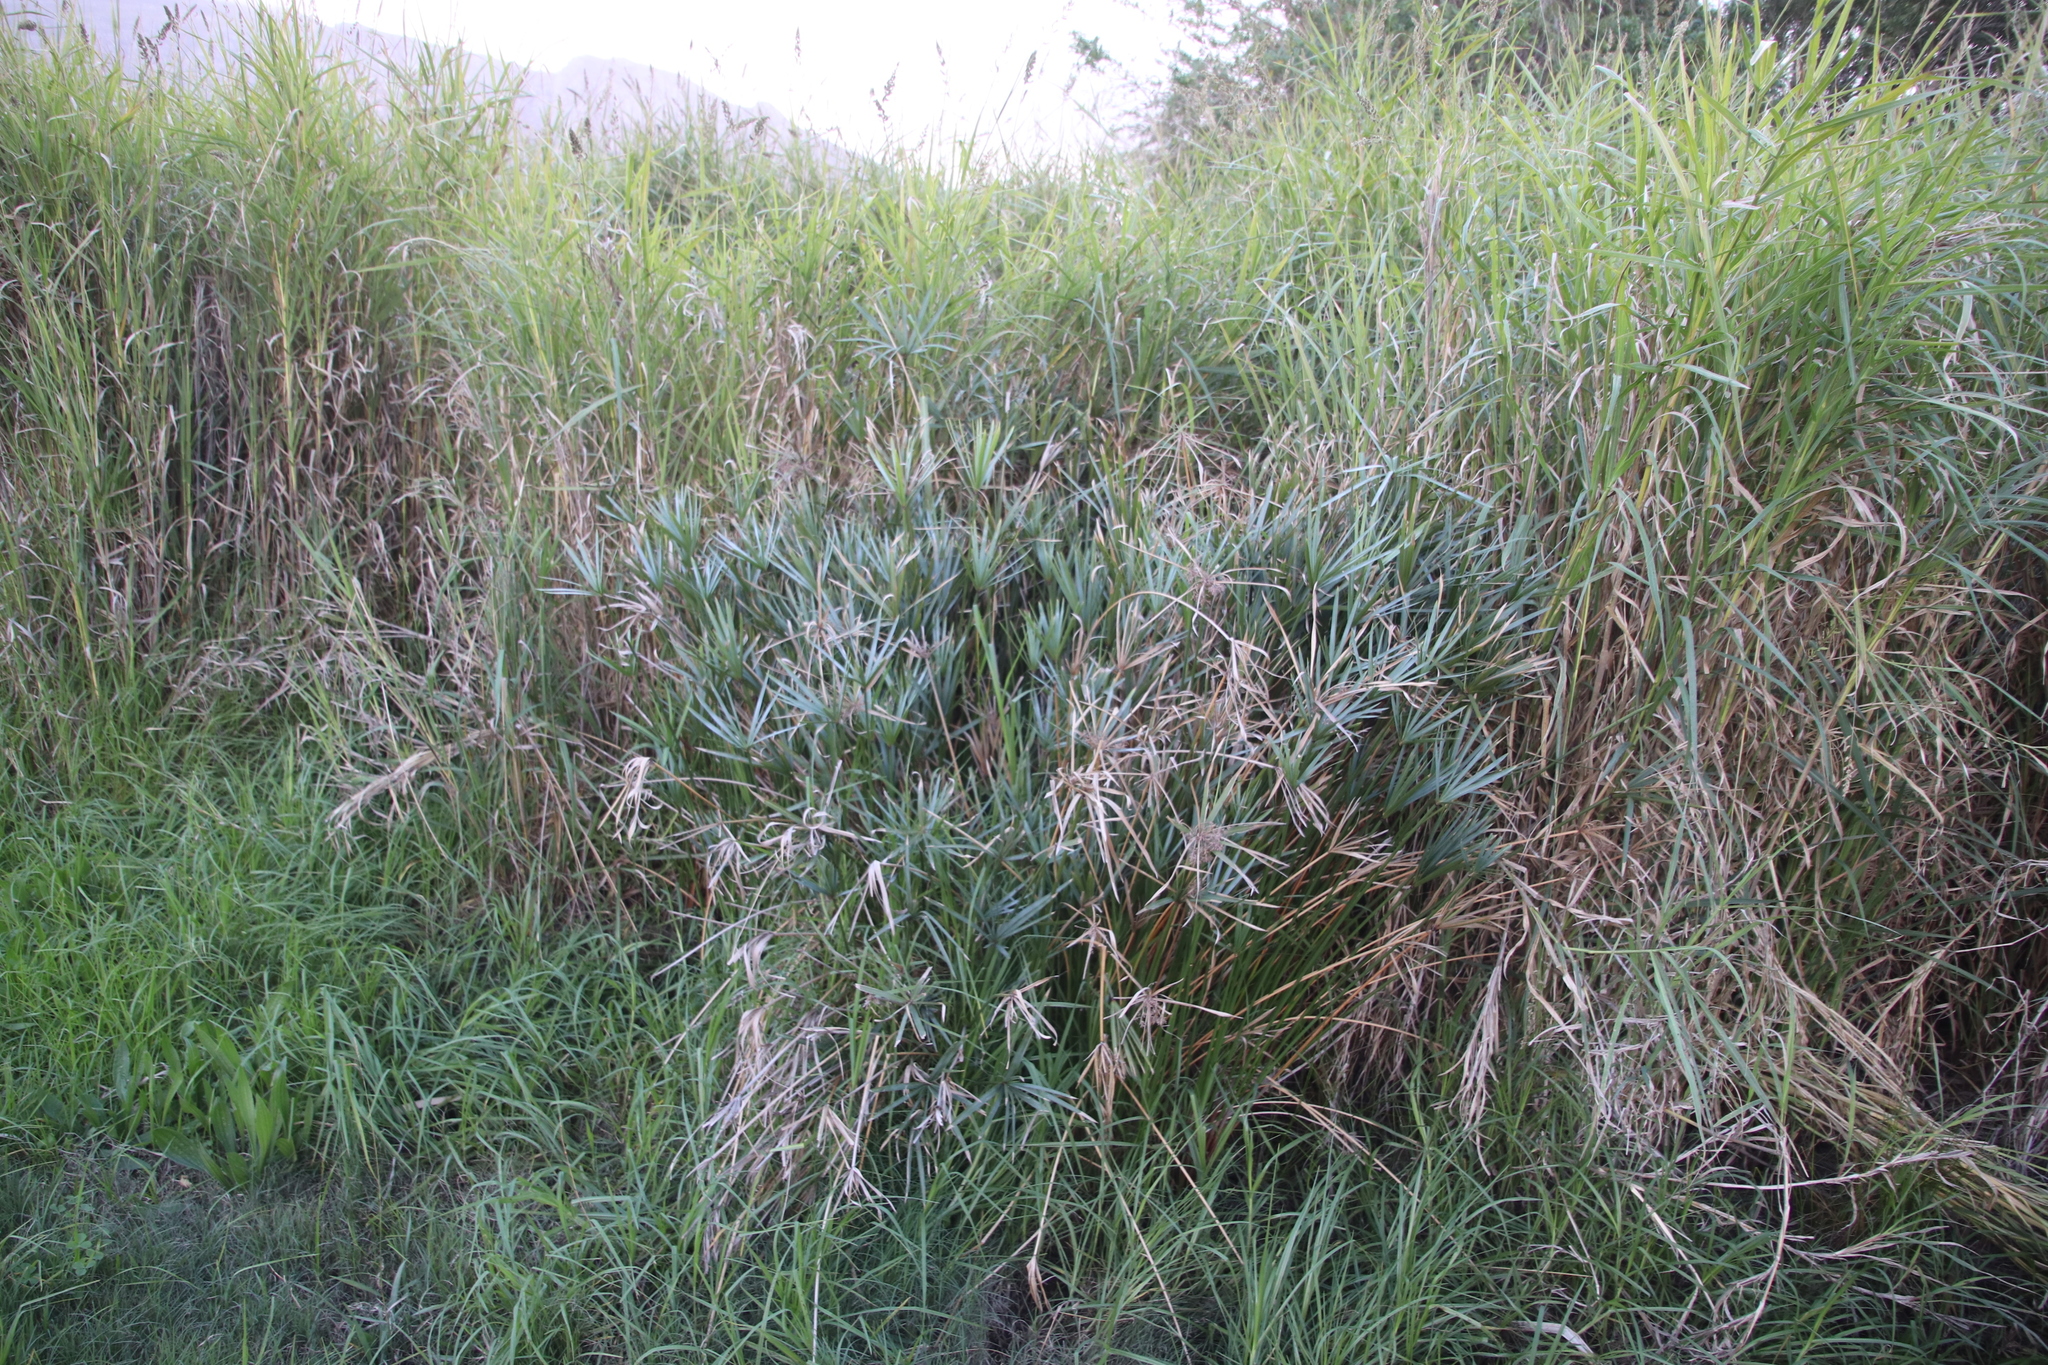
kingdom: Plantae
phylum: Tracheophyta
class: Liliopsida
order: Poales
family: Cyperaceae
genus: Cyperus
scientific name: Cyperus textilis
